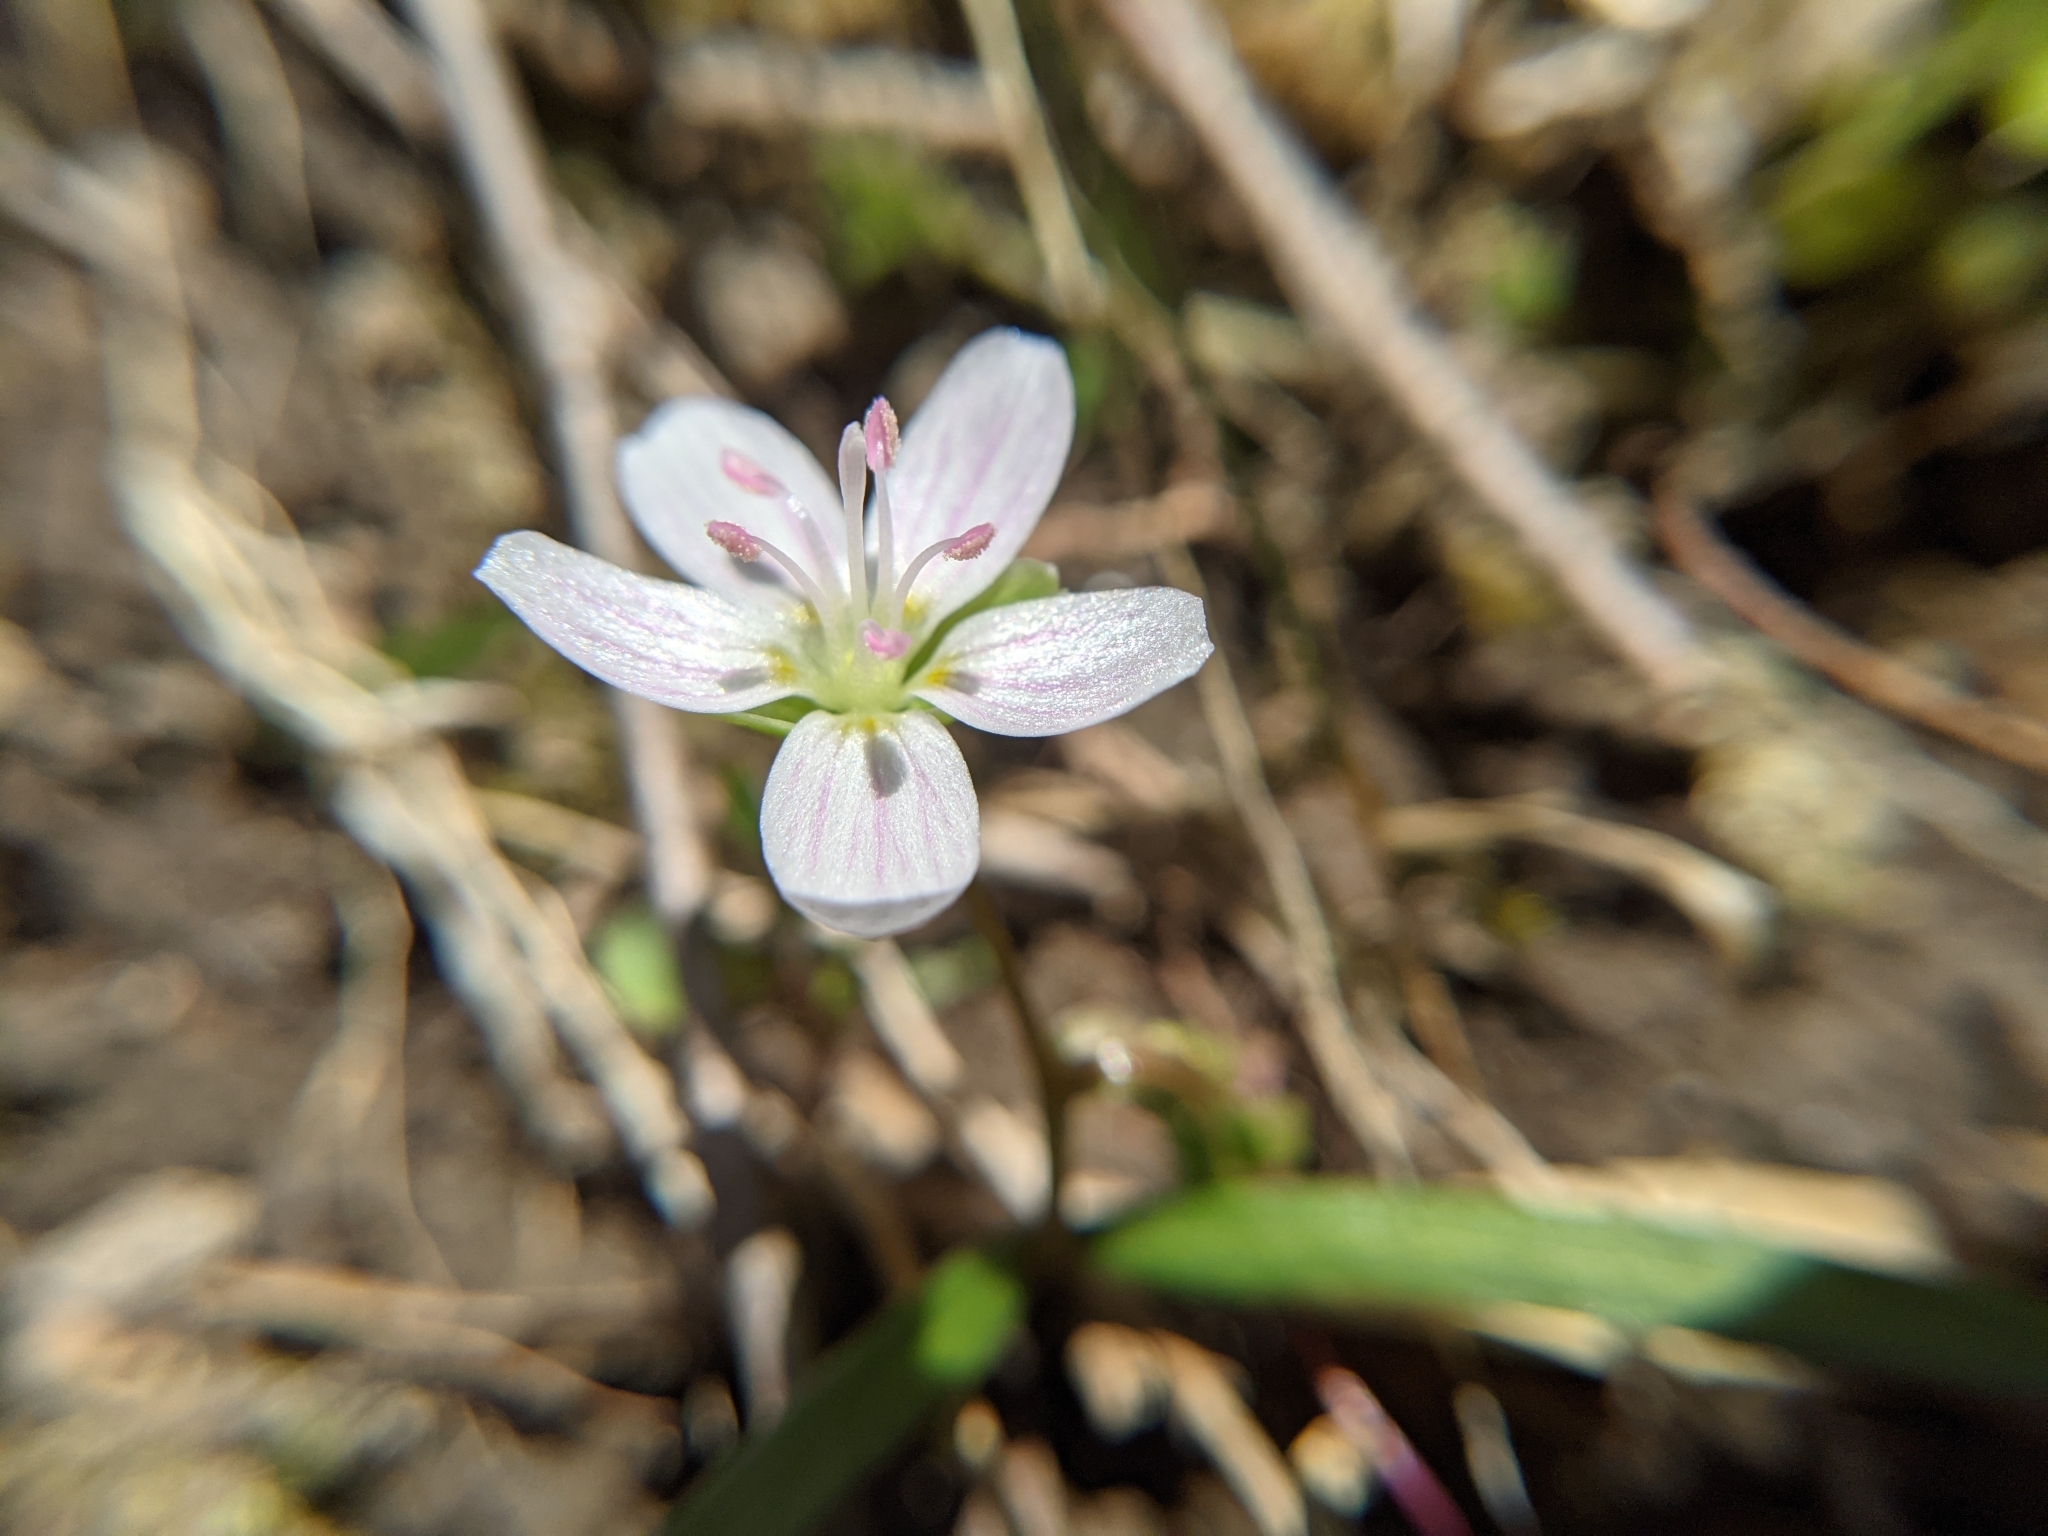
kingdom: Plantae
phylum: Tracheophyta
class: Magnoliopsida
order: Caryophyllales
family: Montiaceae
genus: Claytonia
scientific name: Claytonia virginica
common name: Virginia springbeauty
